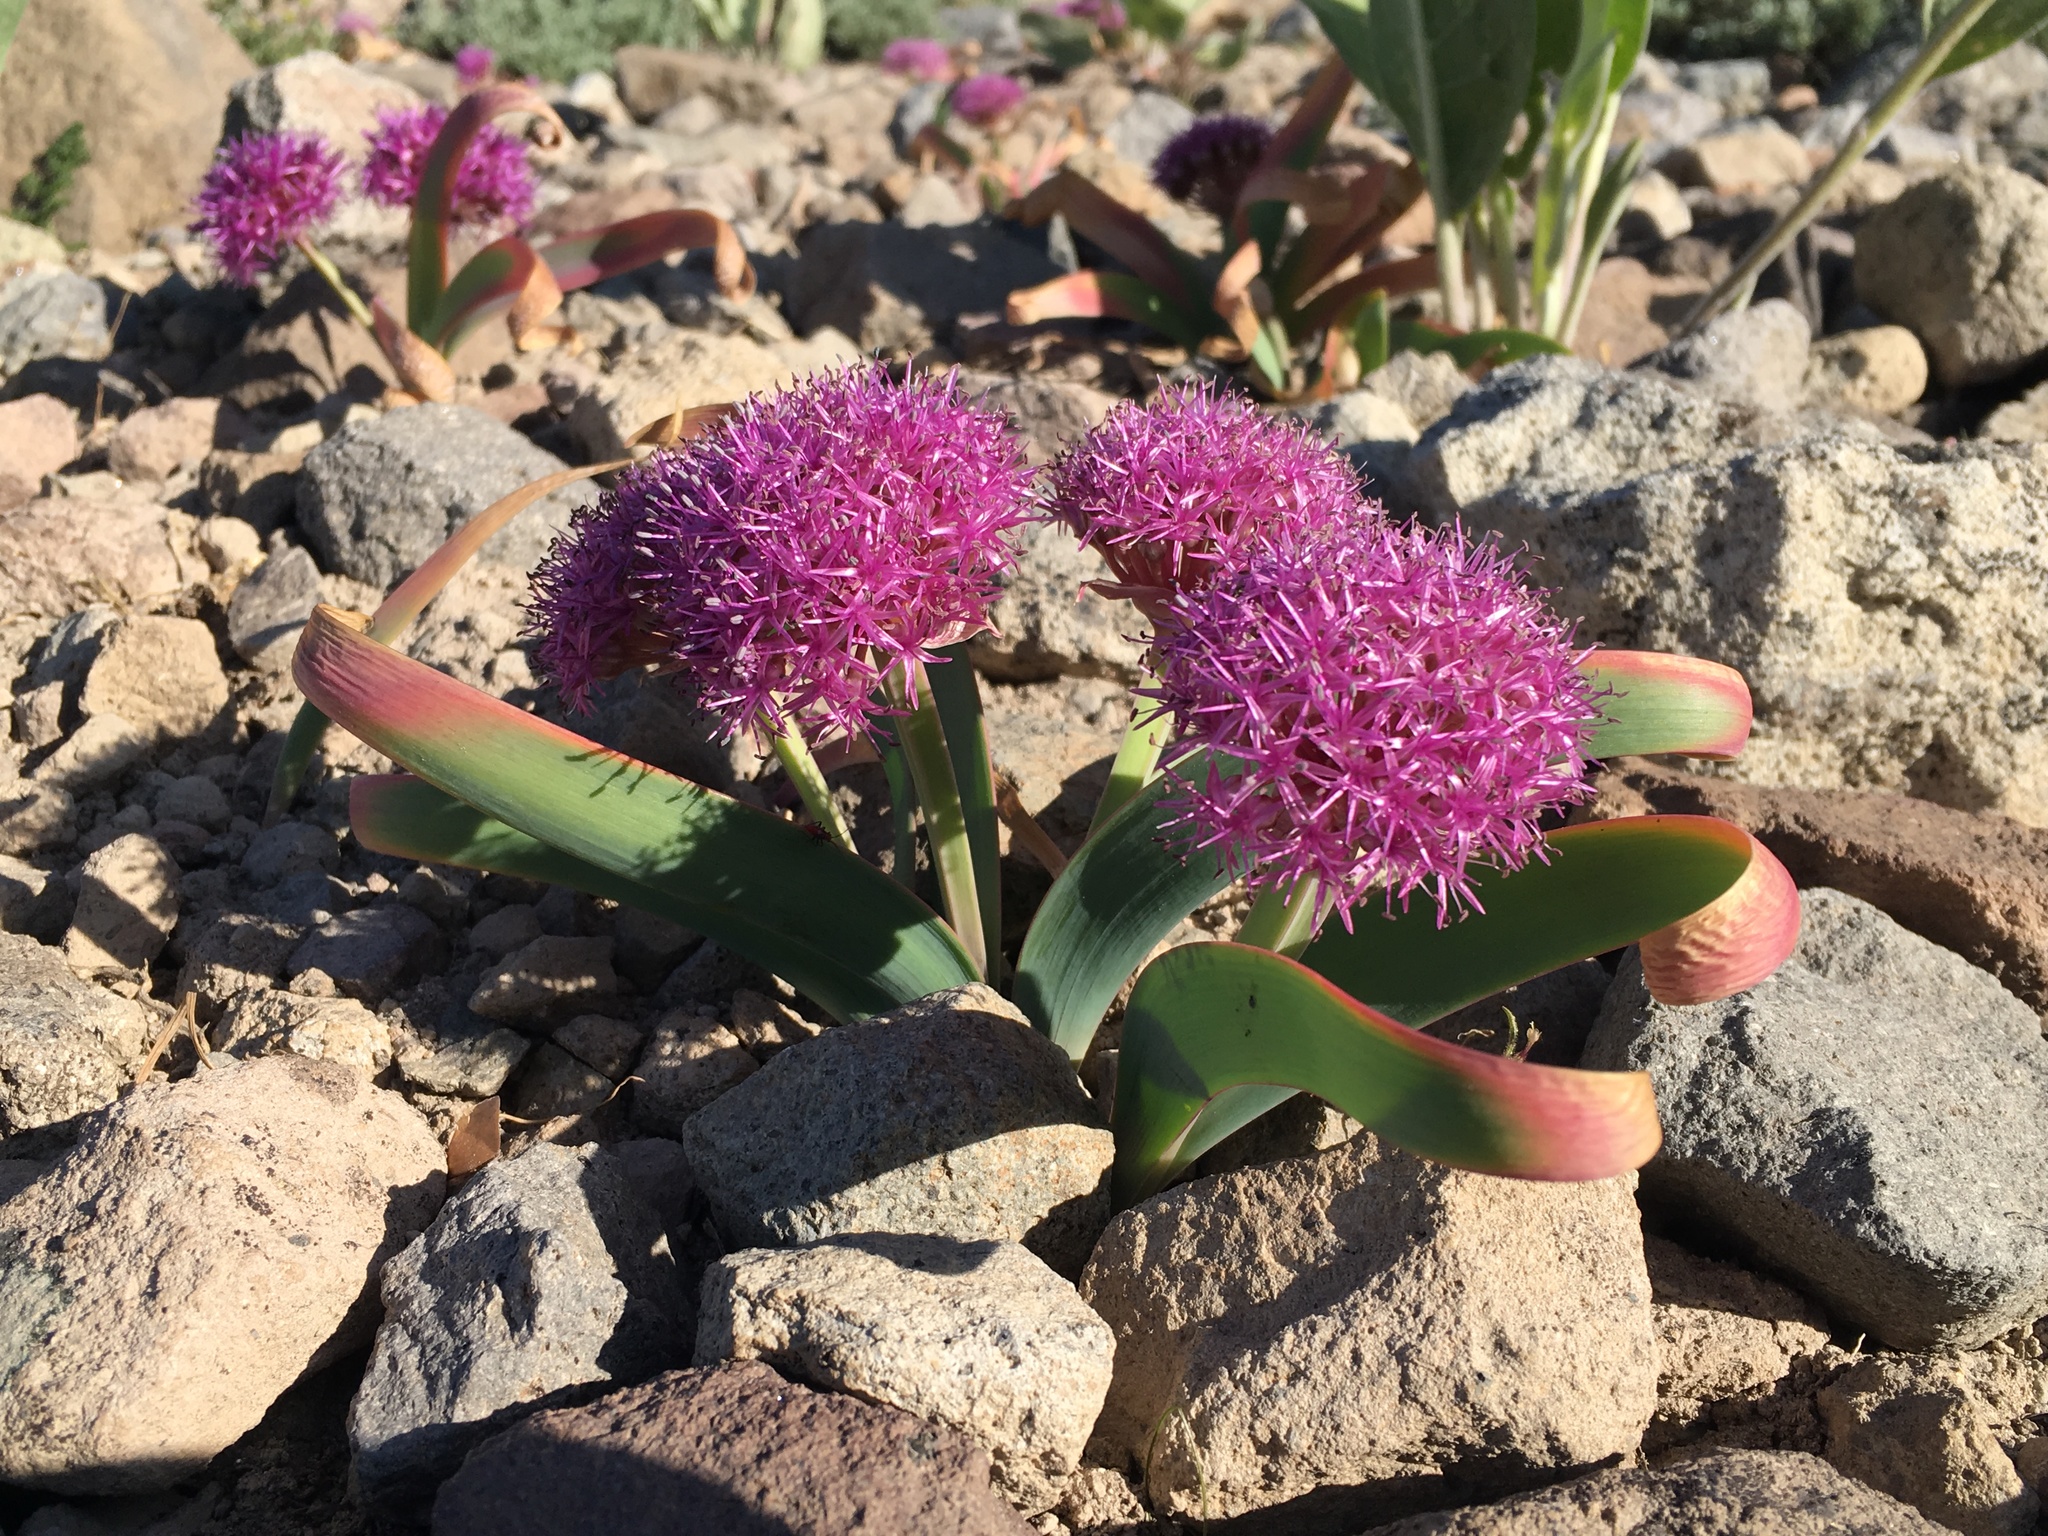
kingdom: Plantae
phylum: Tracheophyta
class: Liliopsida
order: Asparagales
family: Amaryllidaceae
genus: Allium
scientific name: Allium platycaule
